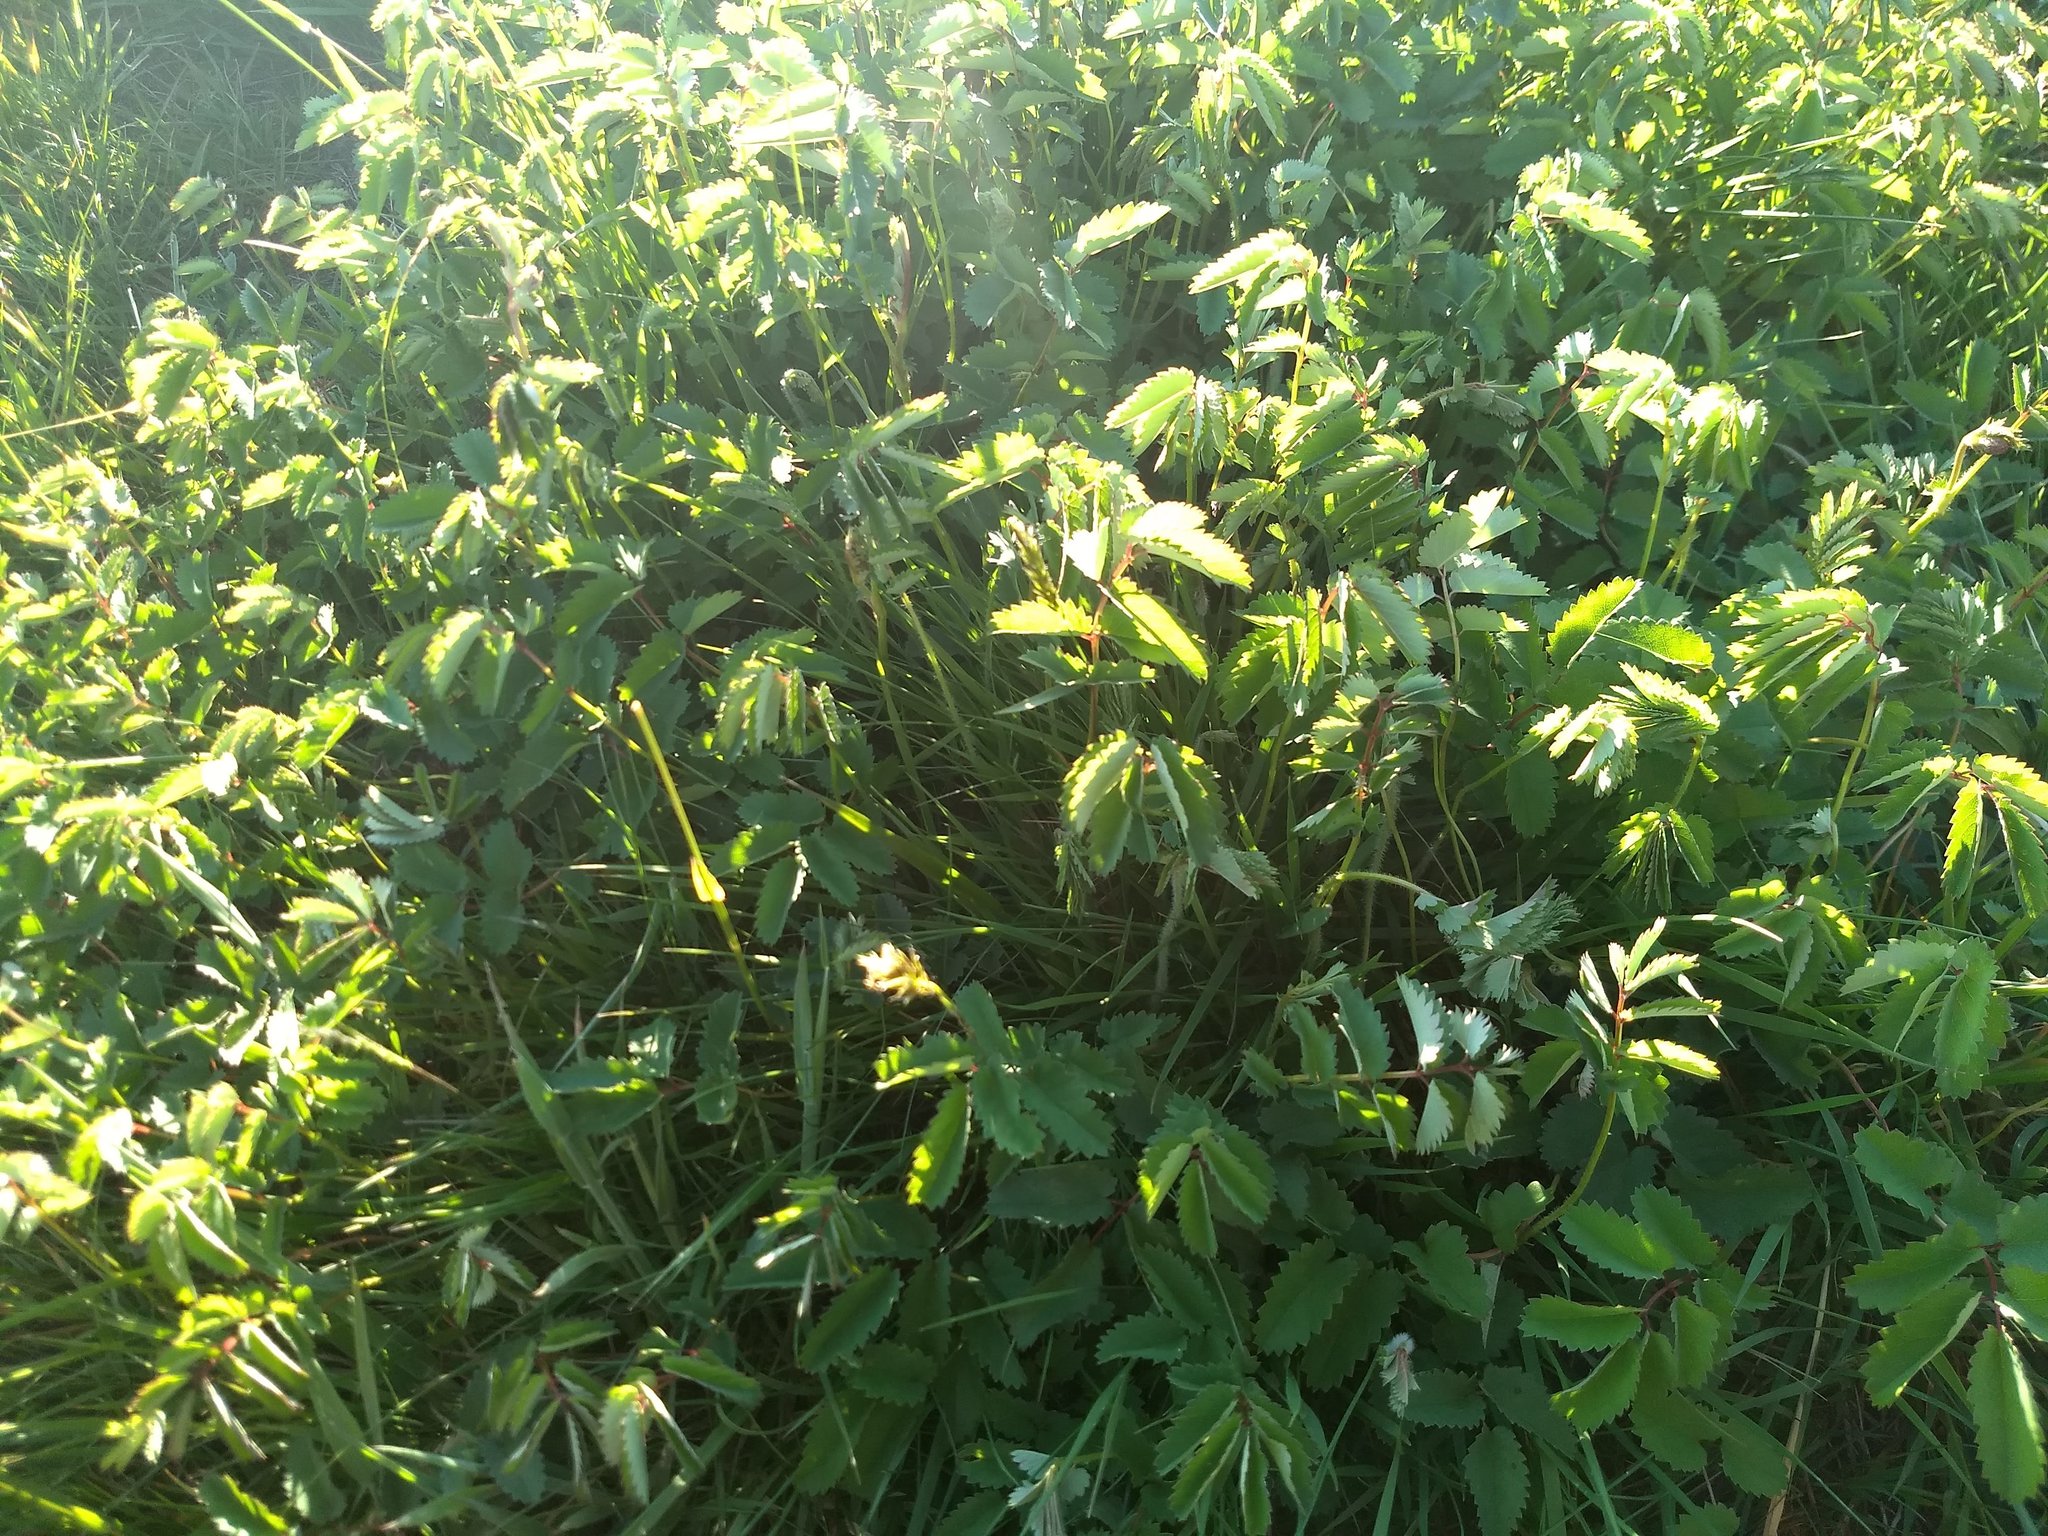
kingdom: Plantae
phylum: Tracheophyta
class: Magnoliopsida
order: Rosales
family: Rosaceae
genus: Sanguisorba
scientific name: Sanguisorba officinalis
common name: Great burnet
